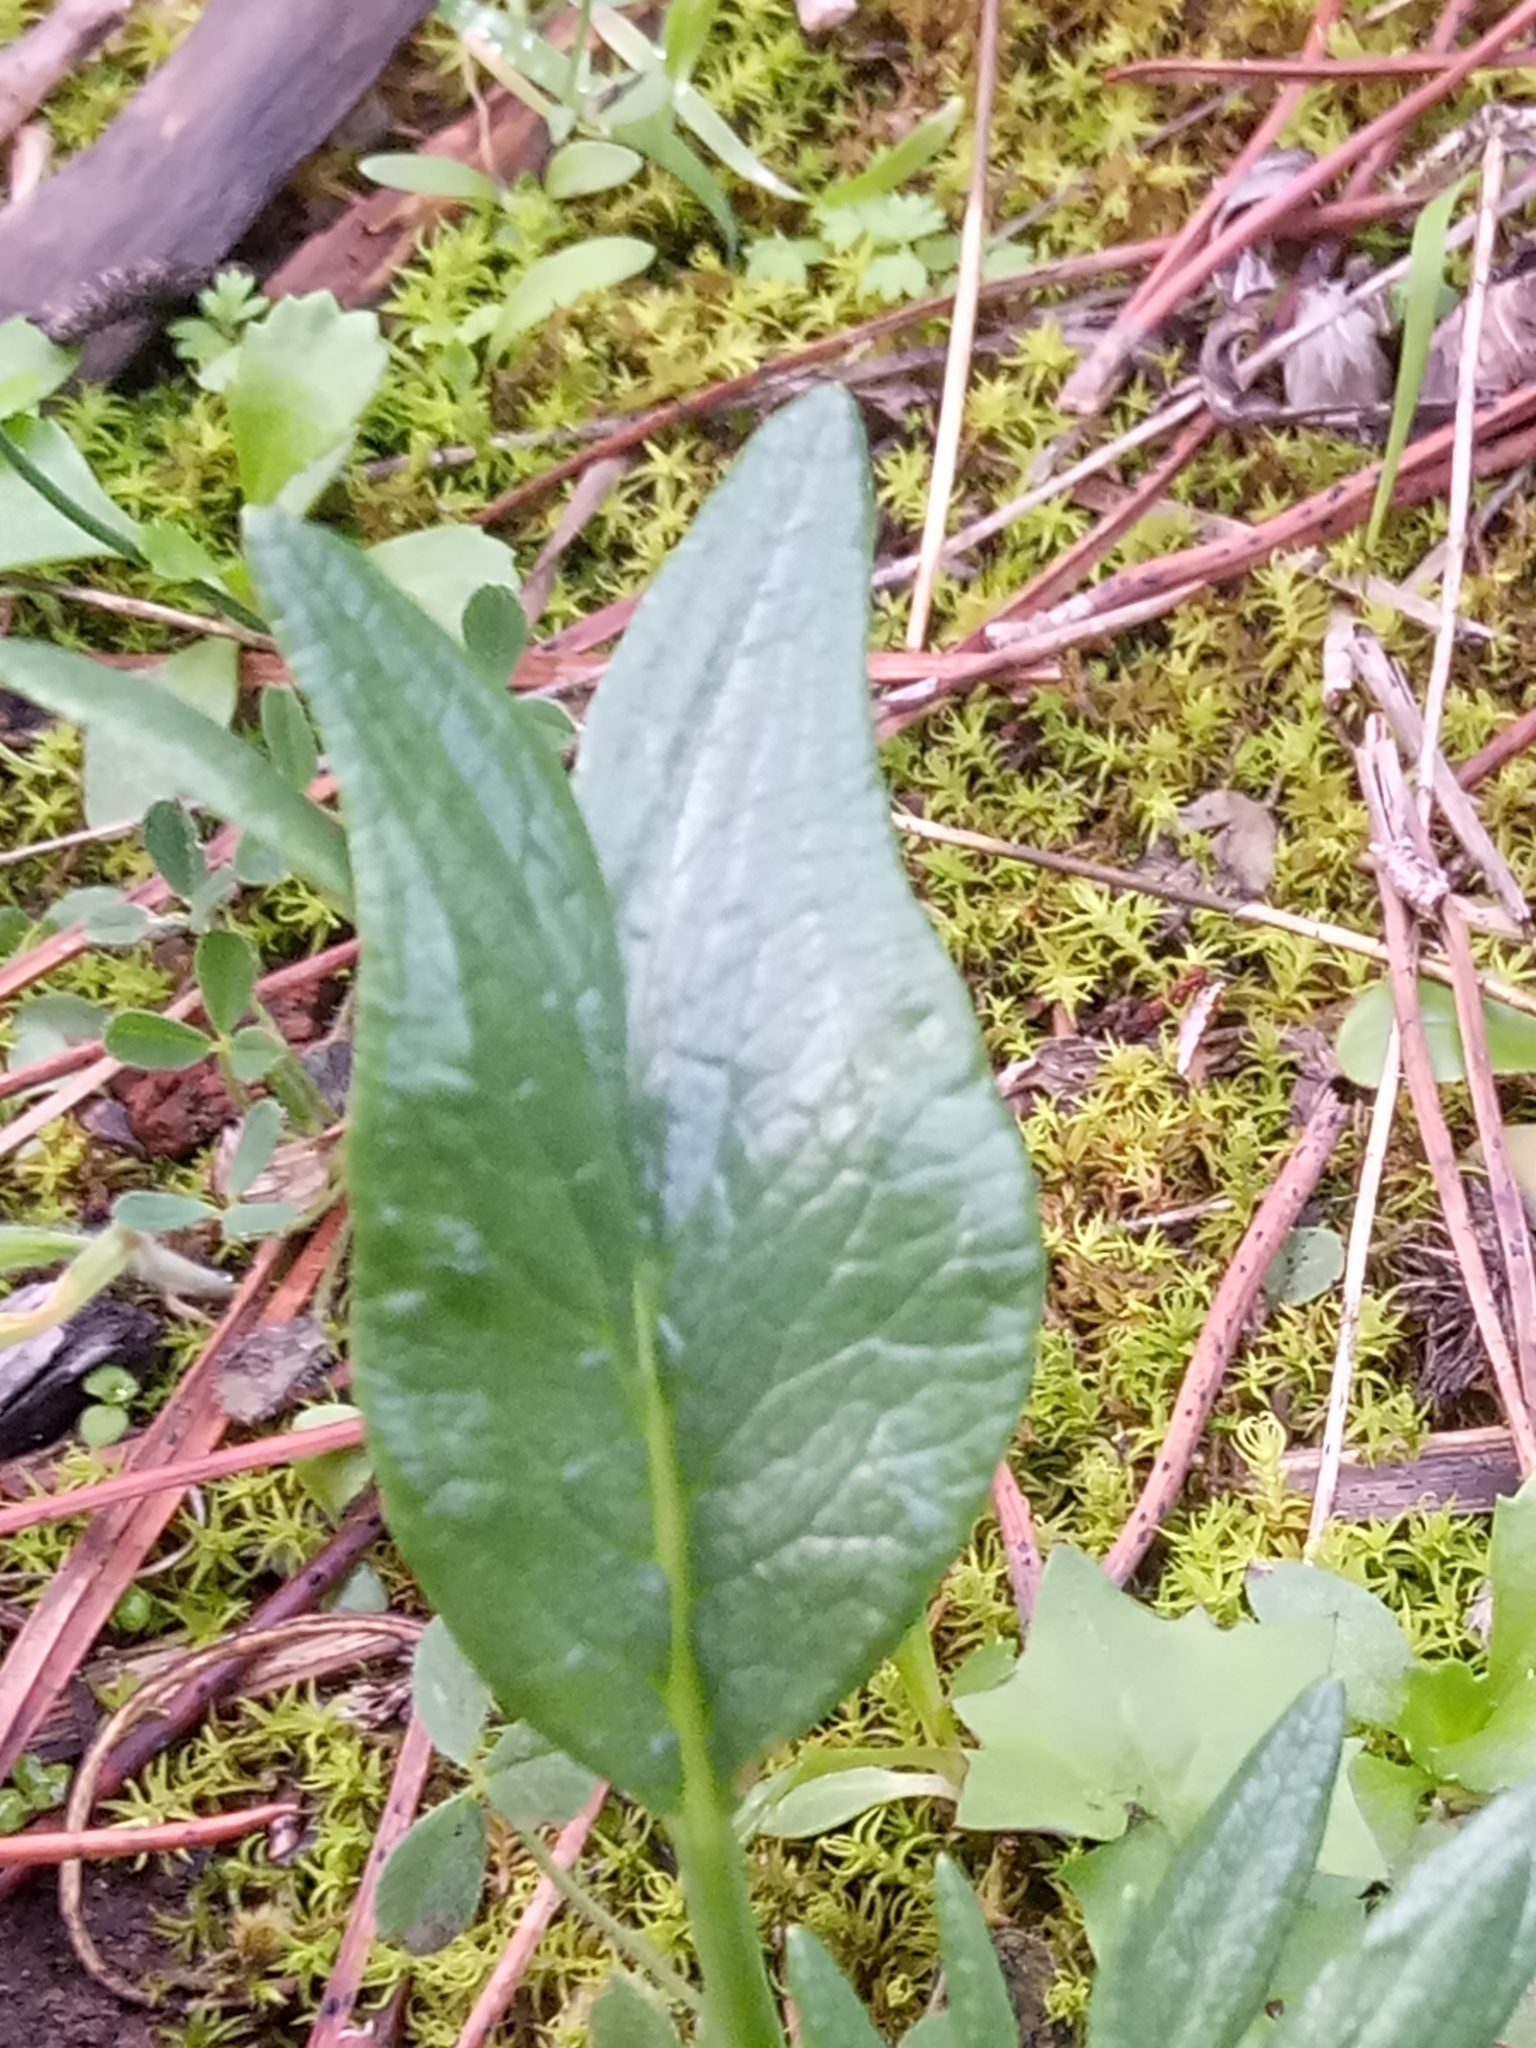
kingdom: Plantae
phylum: Tracheophyta
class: Magnoliopsida
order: Apiales
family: Apiaceae
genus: Thapsia
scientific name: Thapsia garganica
